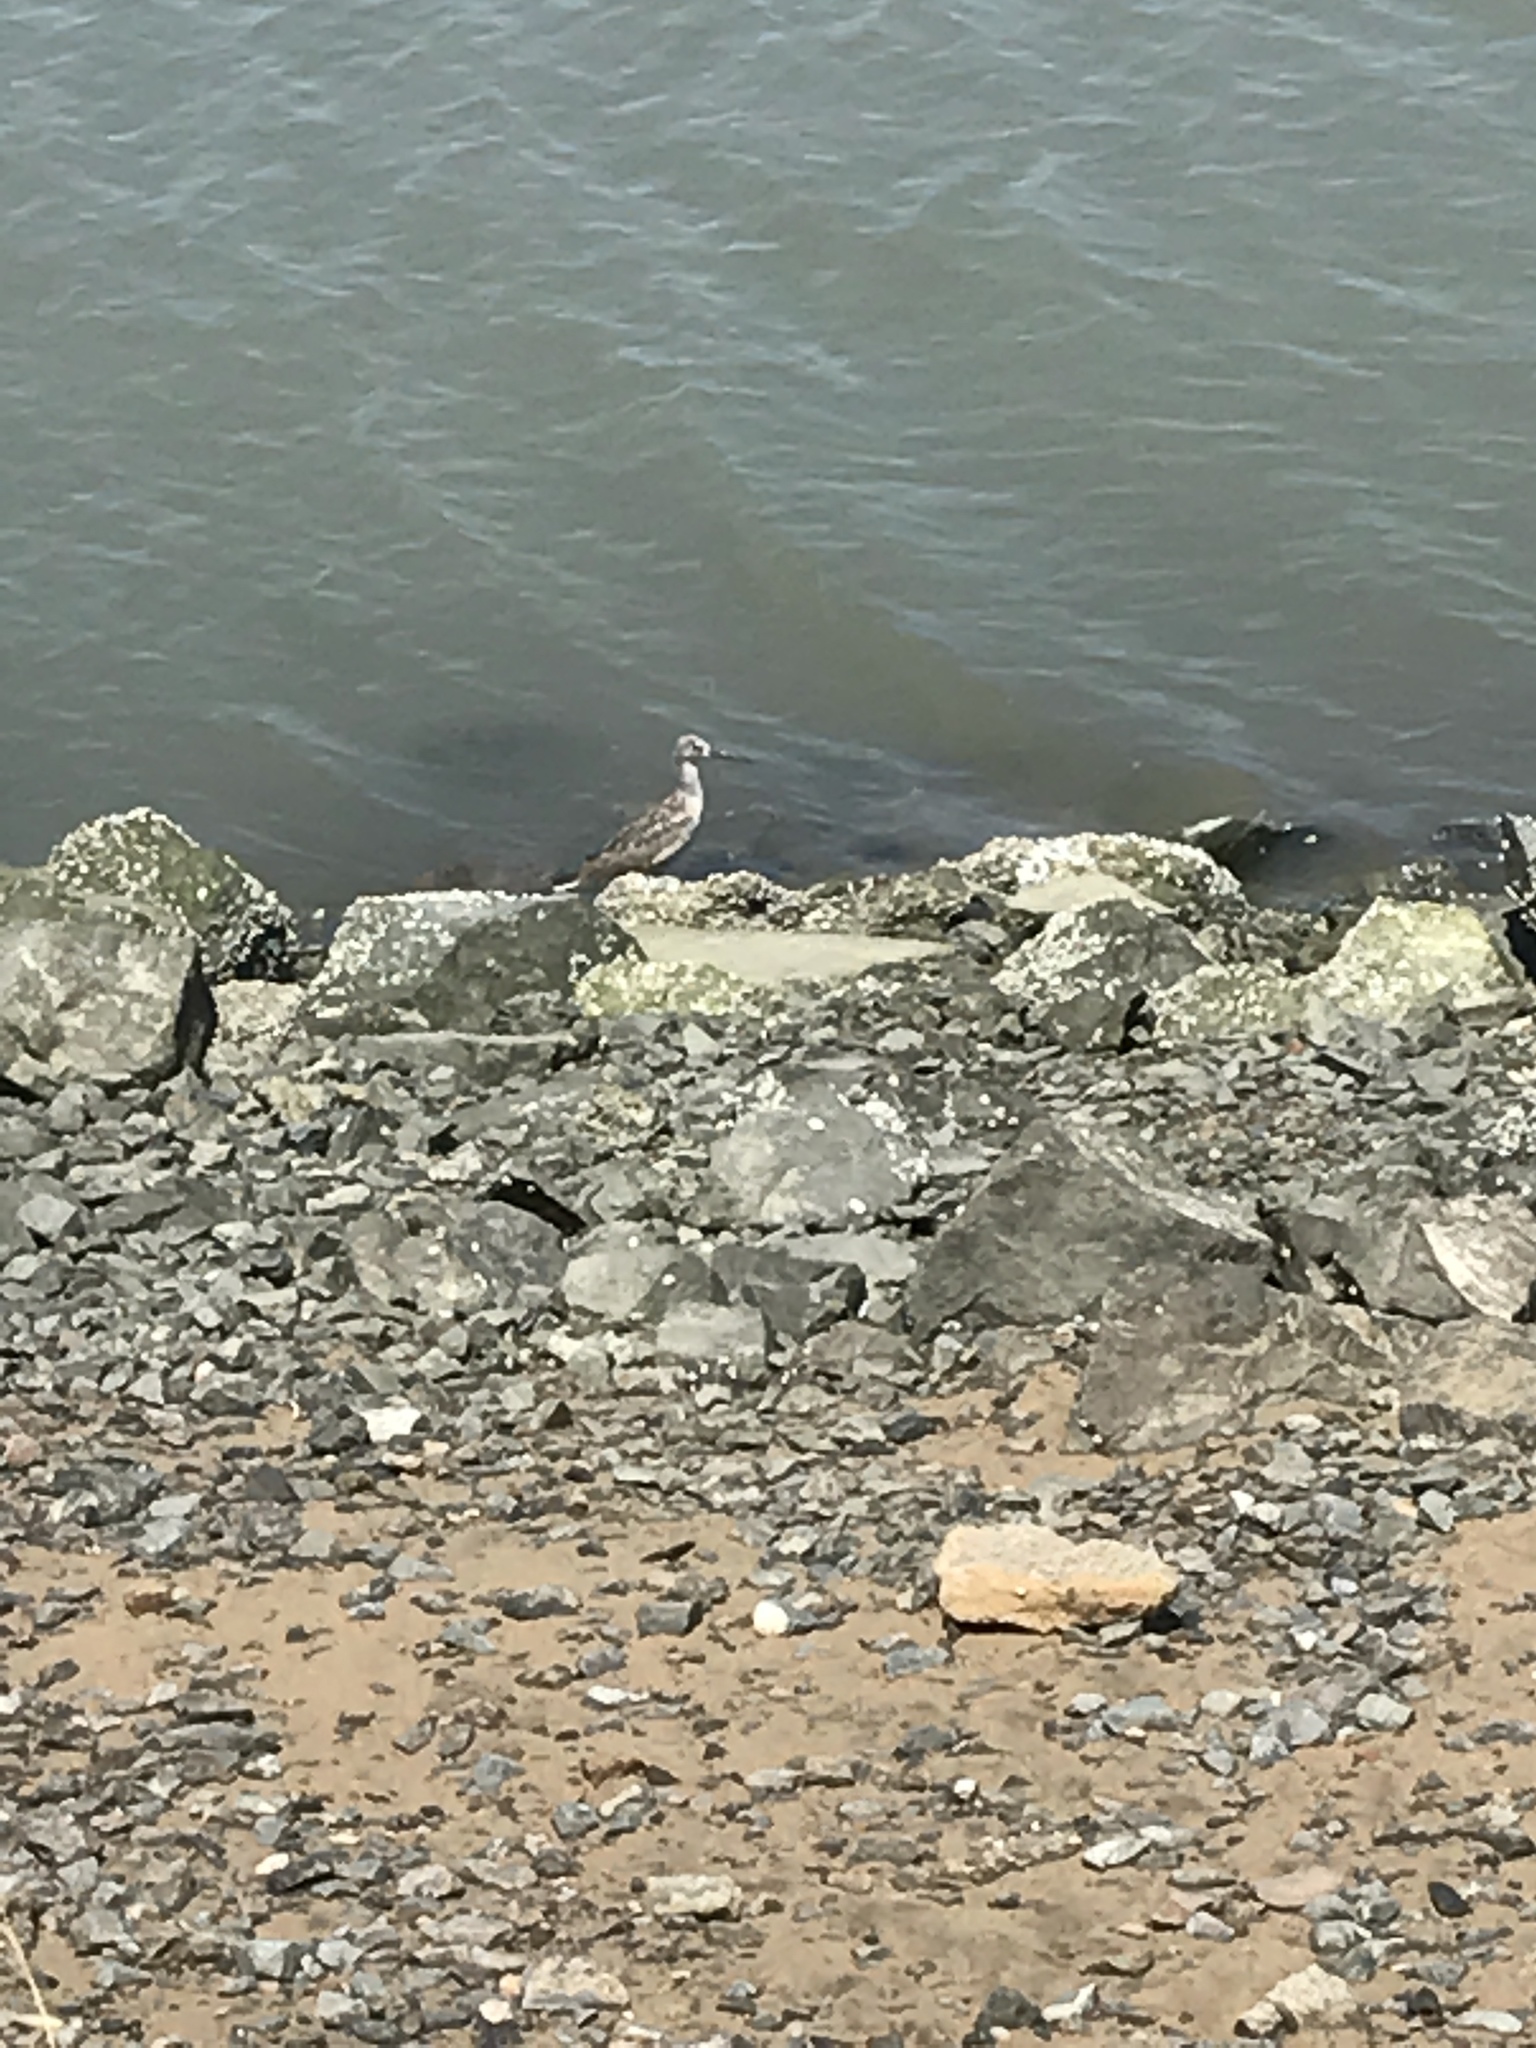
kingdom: Animalia
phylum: Chordata
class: Aves
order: Charadriiformes
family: Scolopacidae
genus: Tringa
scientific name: Tringa semipalmata
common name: Willet
